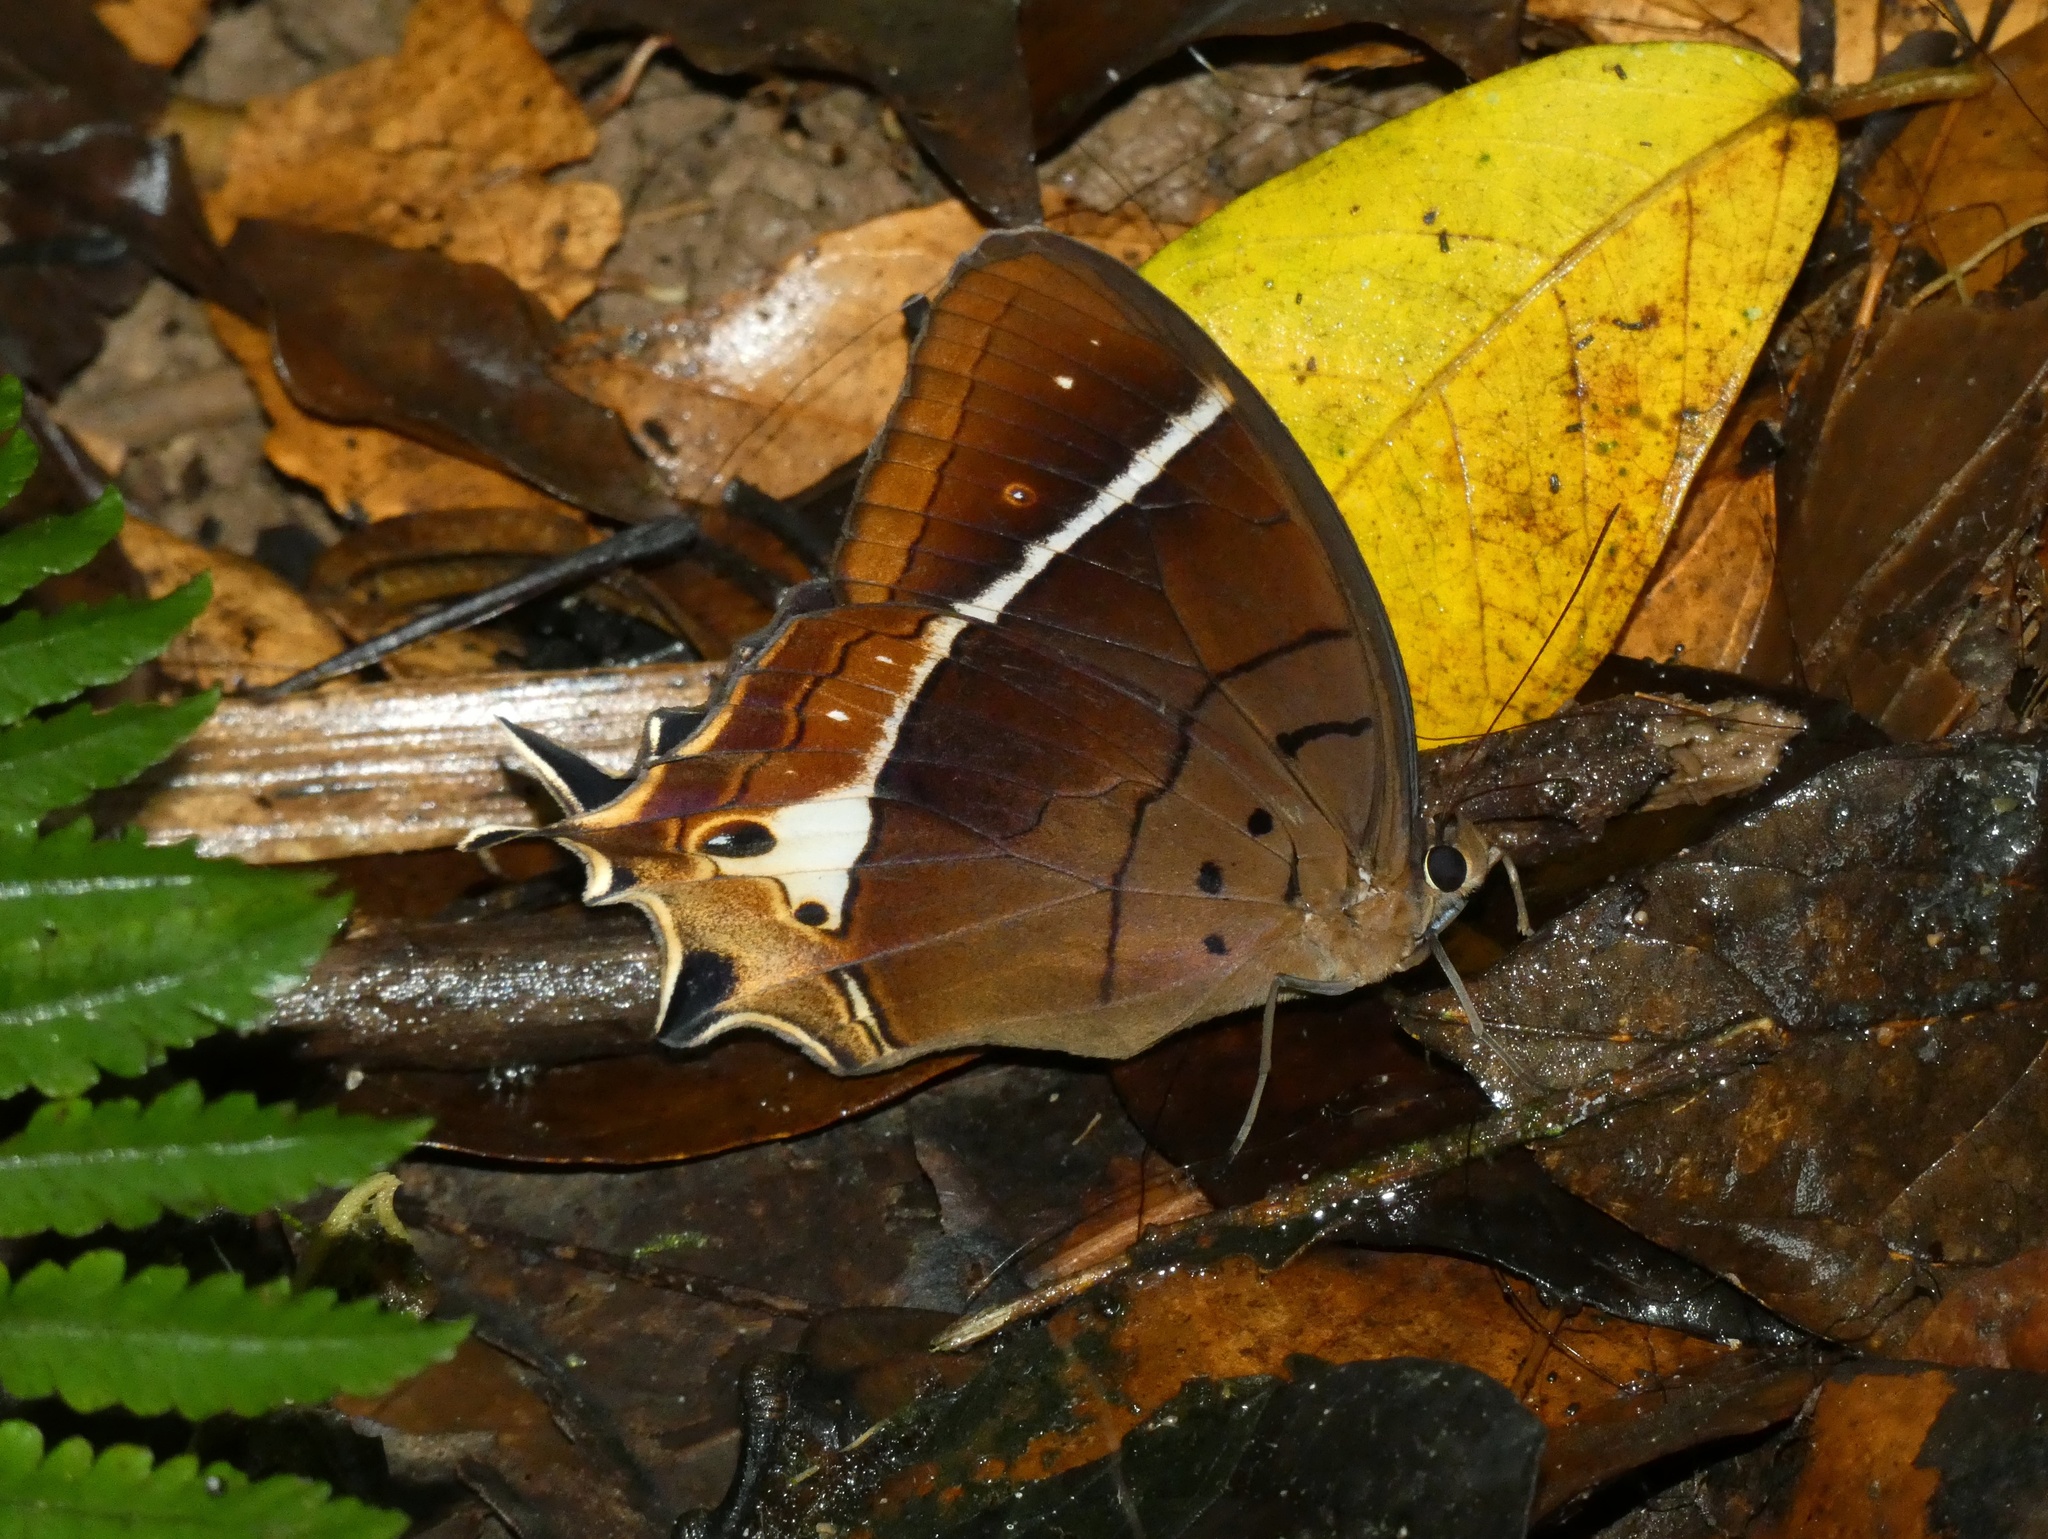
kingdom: Animalia
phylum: Arthropoda
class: Insecta
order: Lepidoptera
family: Nymphalidae
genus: Antirrhea
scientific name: Antirrhea philaretes
